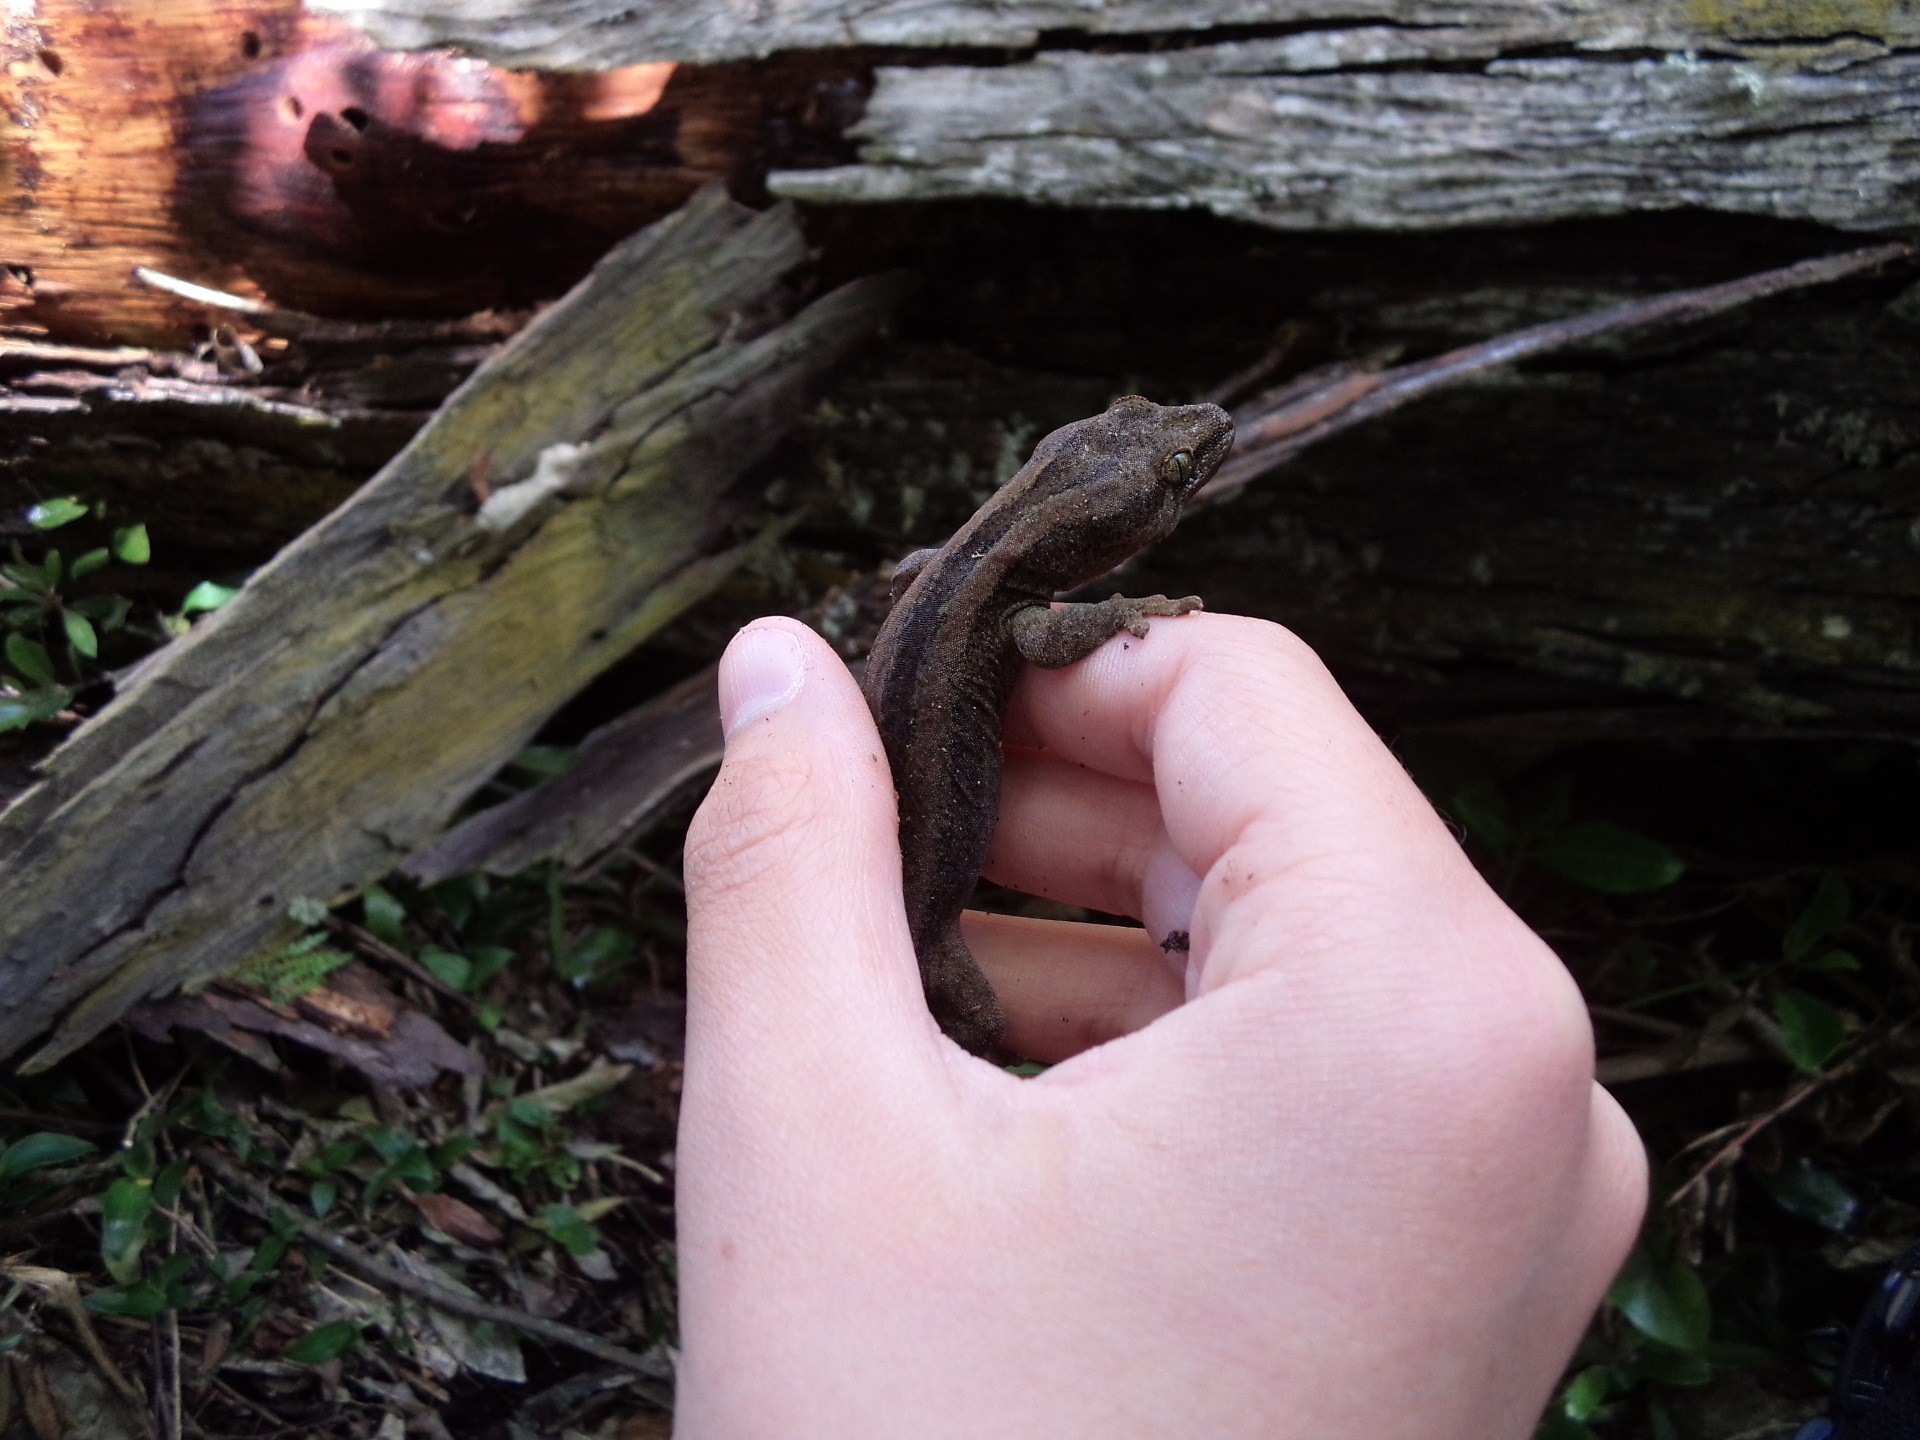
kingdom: Animalia
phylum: Chordata
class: Squamata
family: Diplodactylidae
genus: Woodworthia
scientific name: Woodworthia maculata
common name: Raukawa gecko
